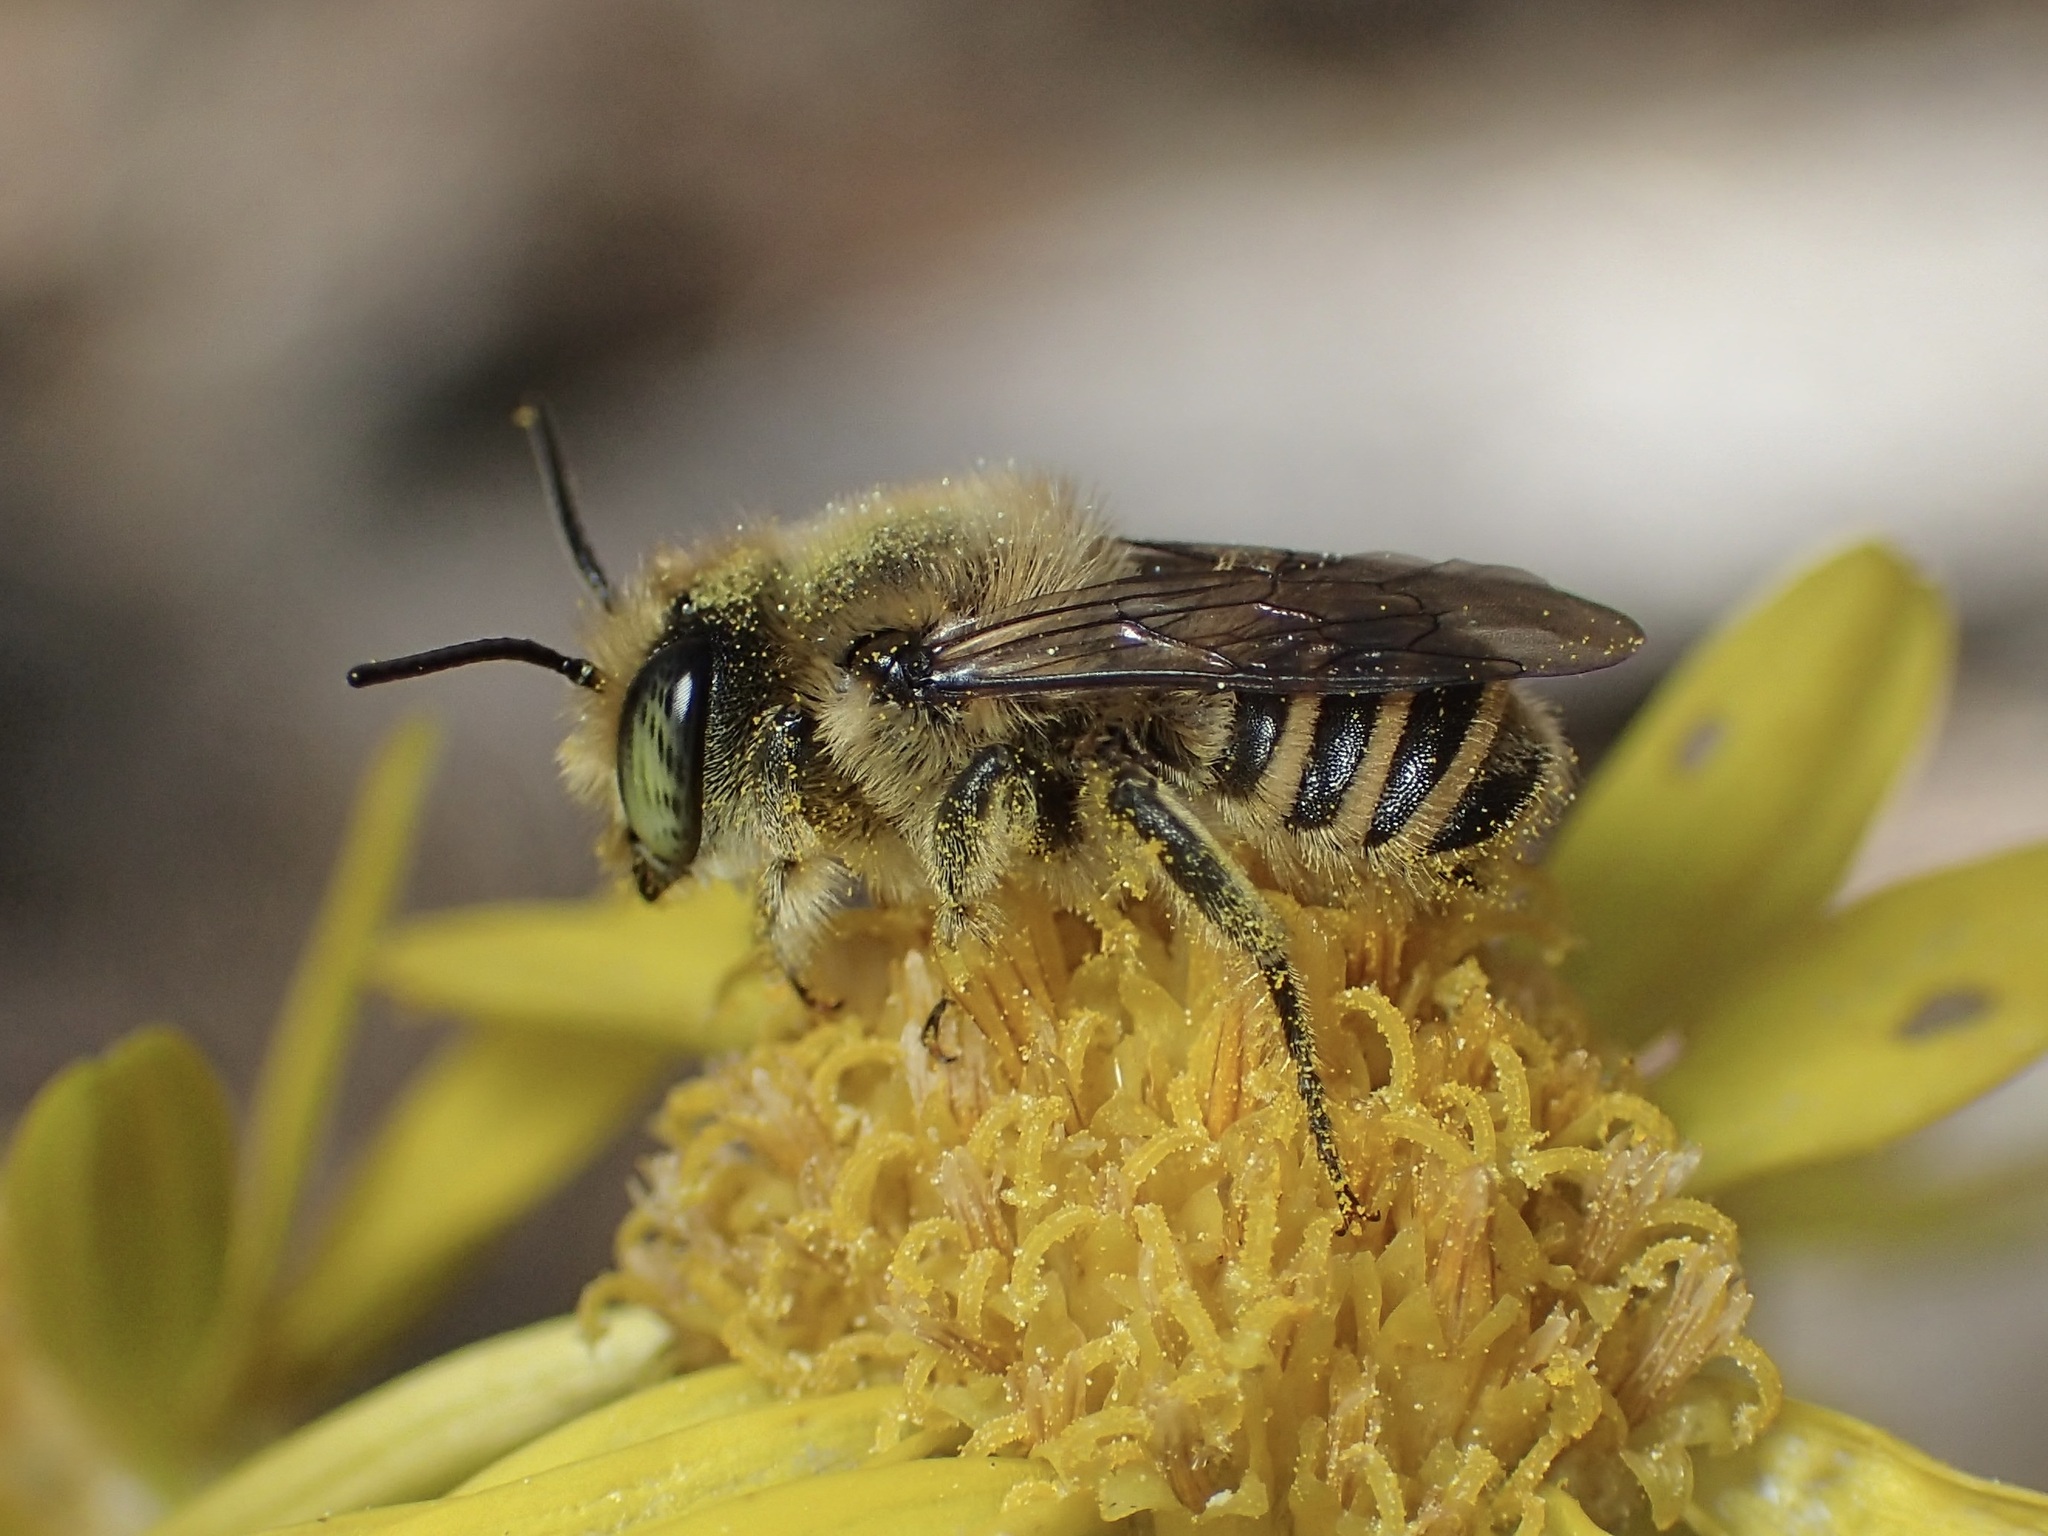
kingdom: Animalia
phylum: Arthropoda
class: Insecta
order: Hymenoptera
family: Megachilidae
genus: Megachile
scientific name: Megachile
